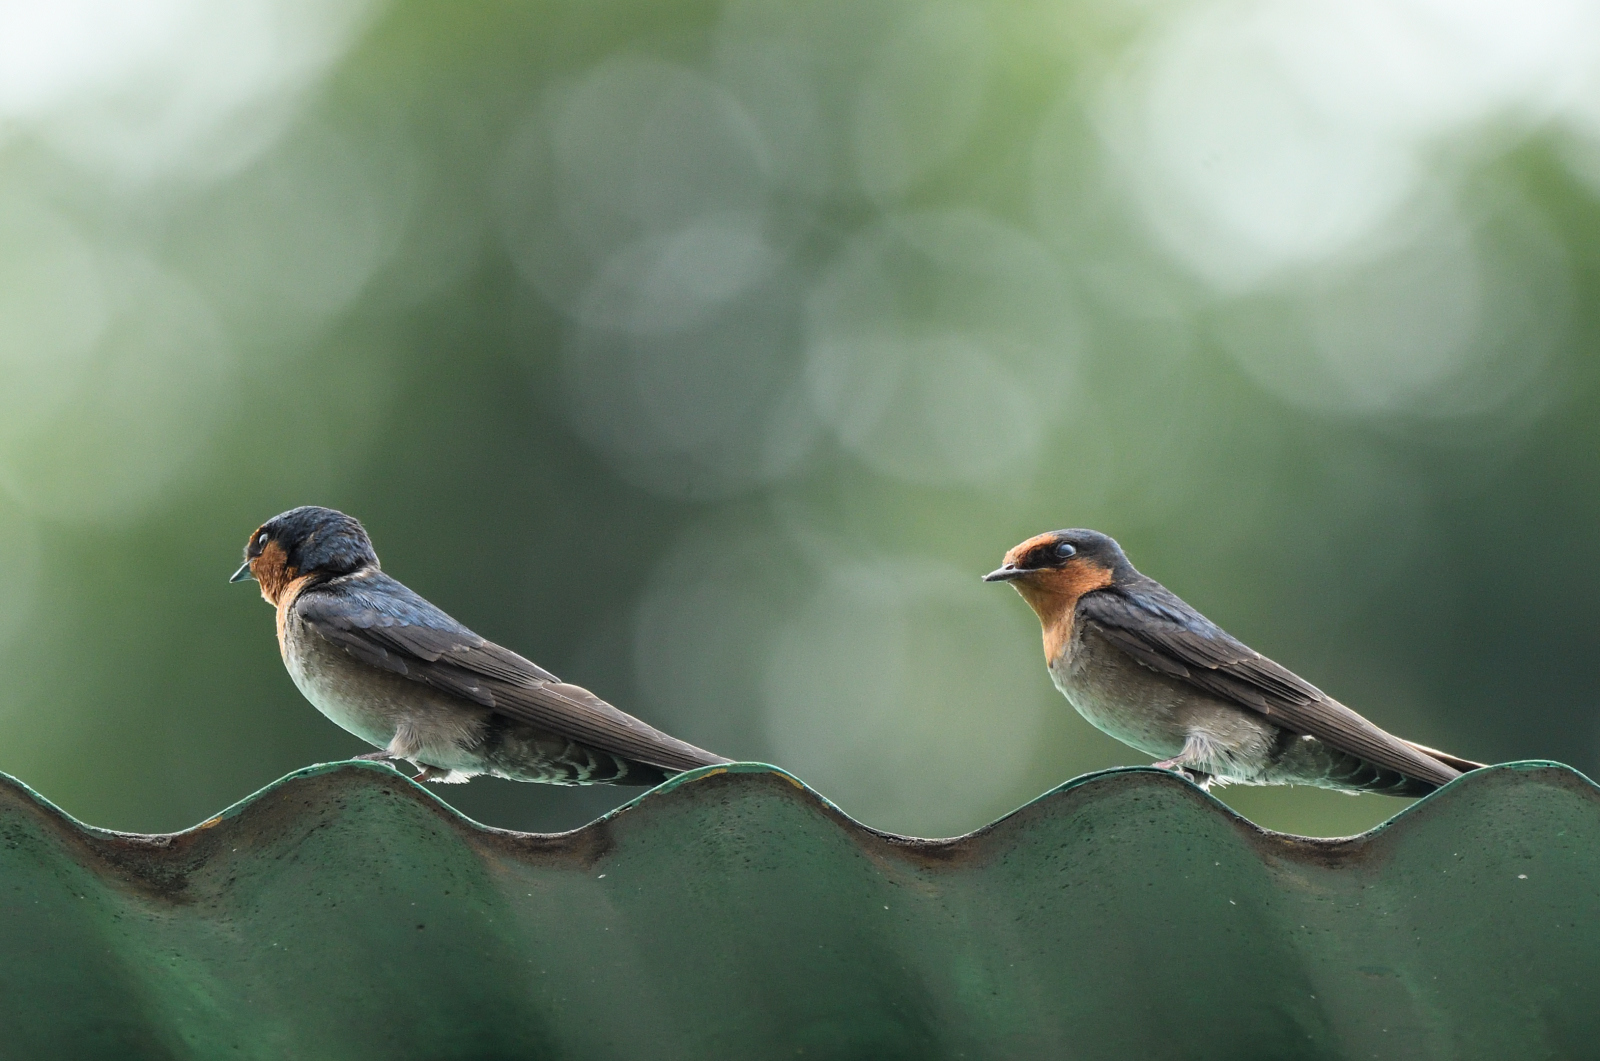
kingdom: Animalia
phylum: Chordata
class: Aves
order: Passeriformes
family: Hirundinidae
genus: Hirundo
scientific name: Hirundo domicola
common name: Hill swallow
